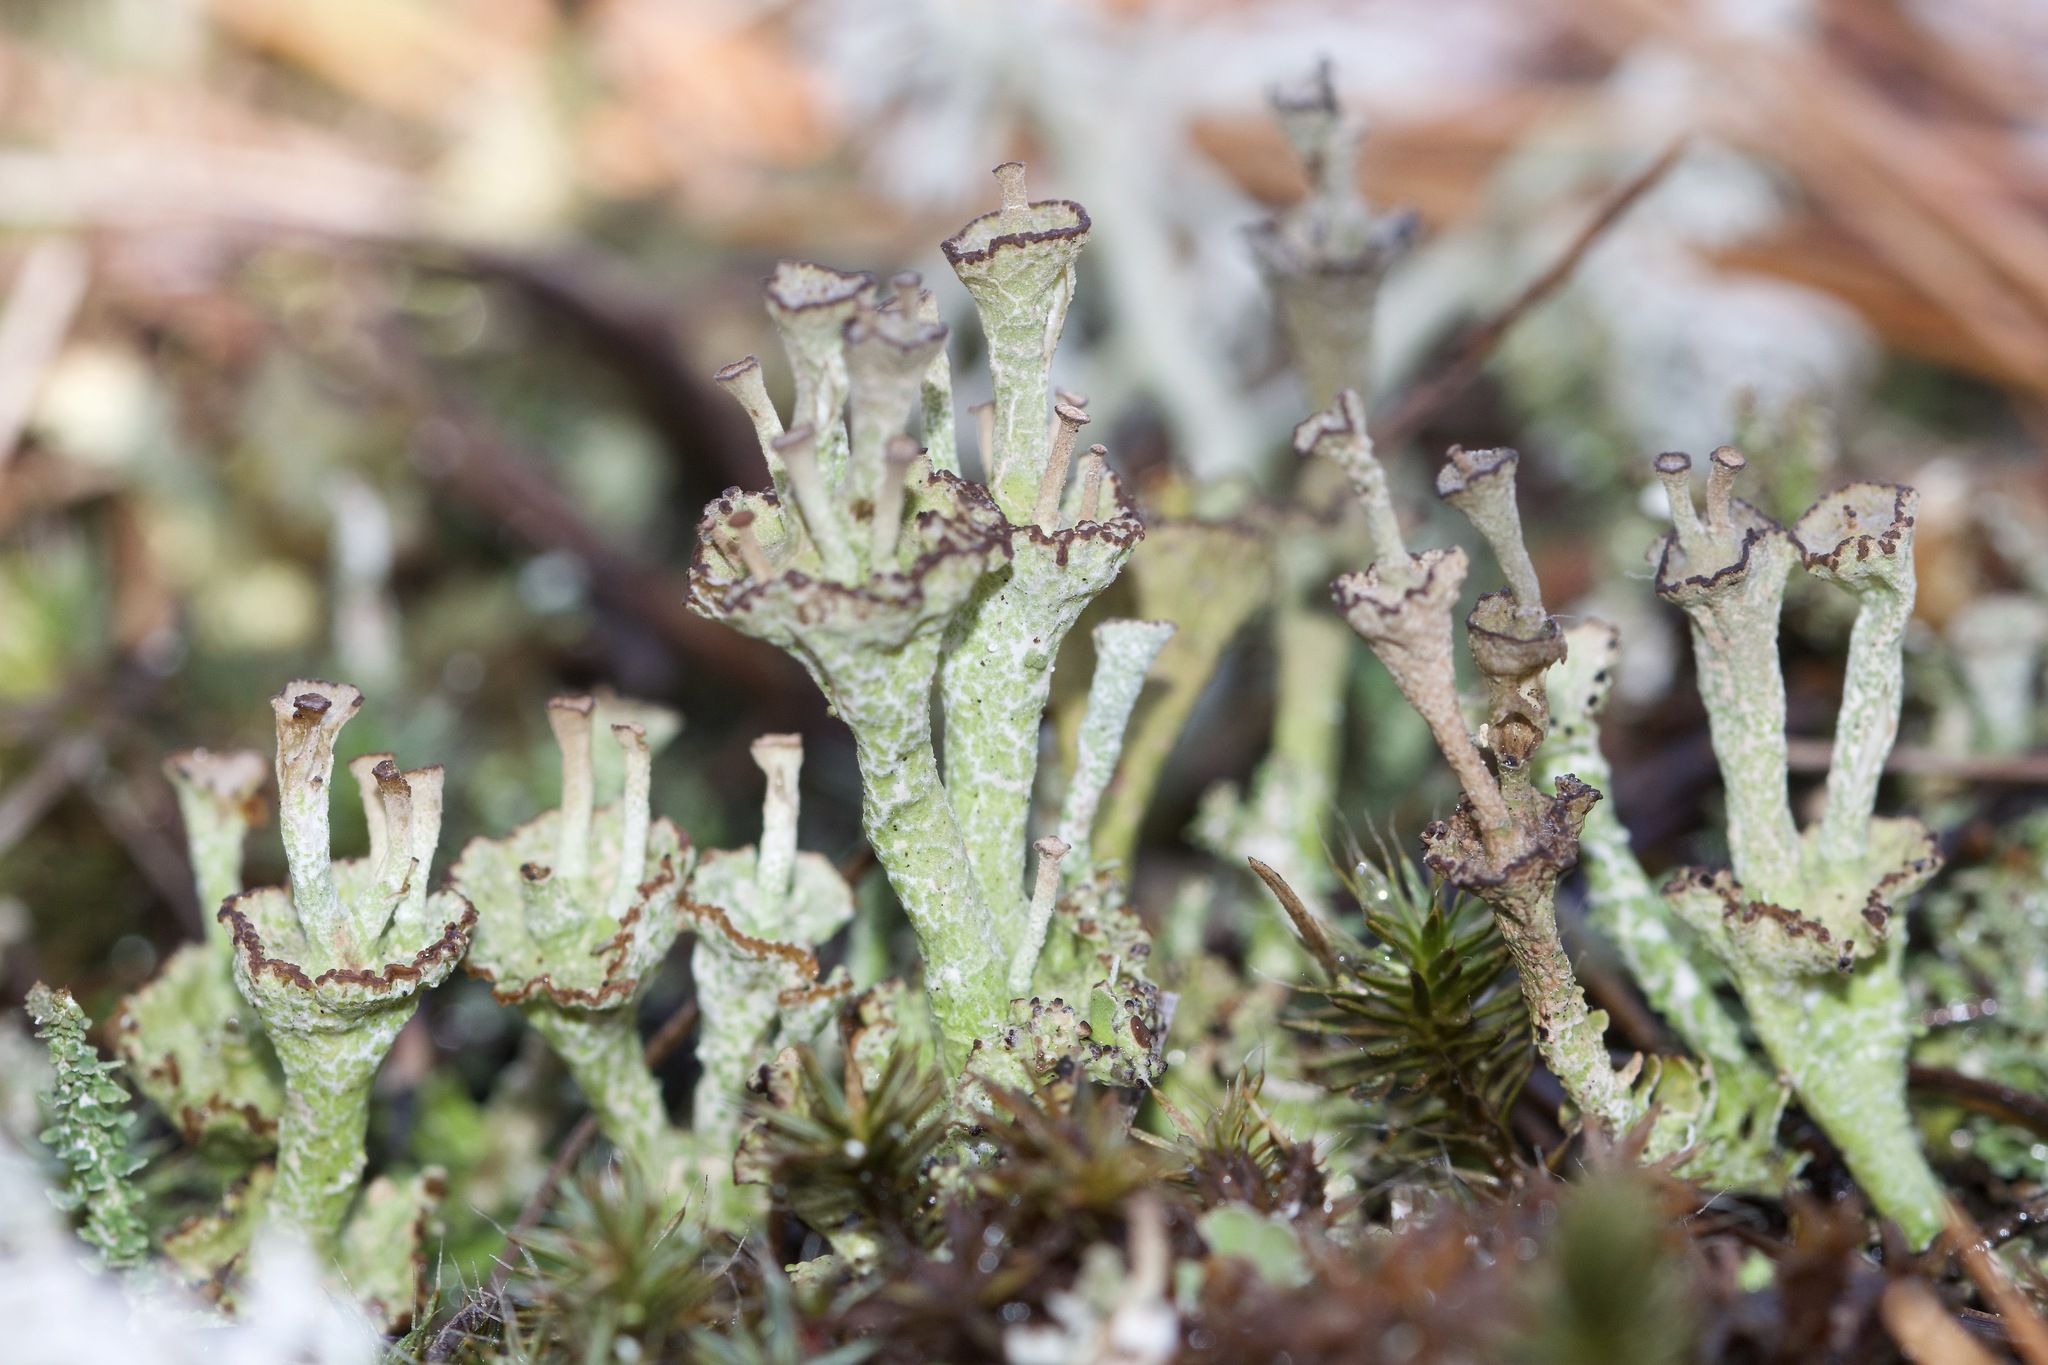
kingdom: Fungi
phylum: Ascomycota
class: Lecanoromycetes
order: Lecanorales
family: Cladoniaceae
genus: Cladonia
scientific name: Cladonia cervicornis
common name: Browned pixie-cup lichen
